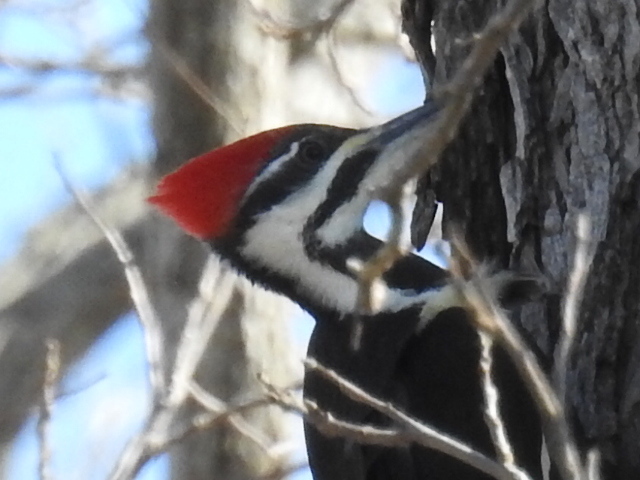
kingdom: Animalia
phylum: Chordata
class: Aves
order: Piciformes
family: Picidae
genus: Dryocopus
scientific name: Dryocopus pileatus
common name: Pileated woodpecker
